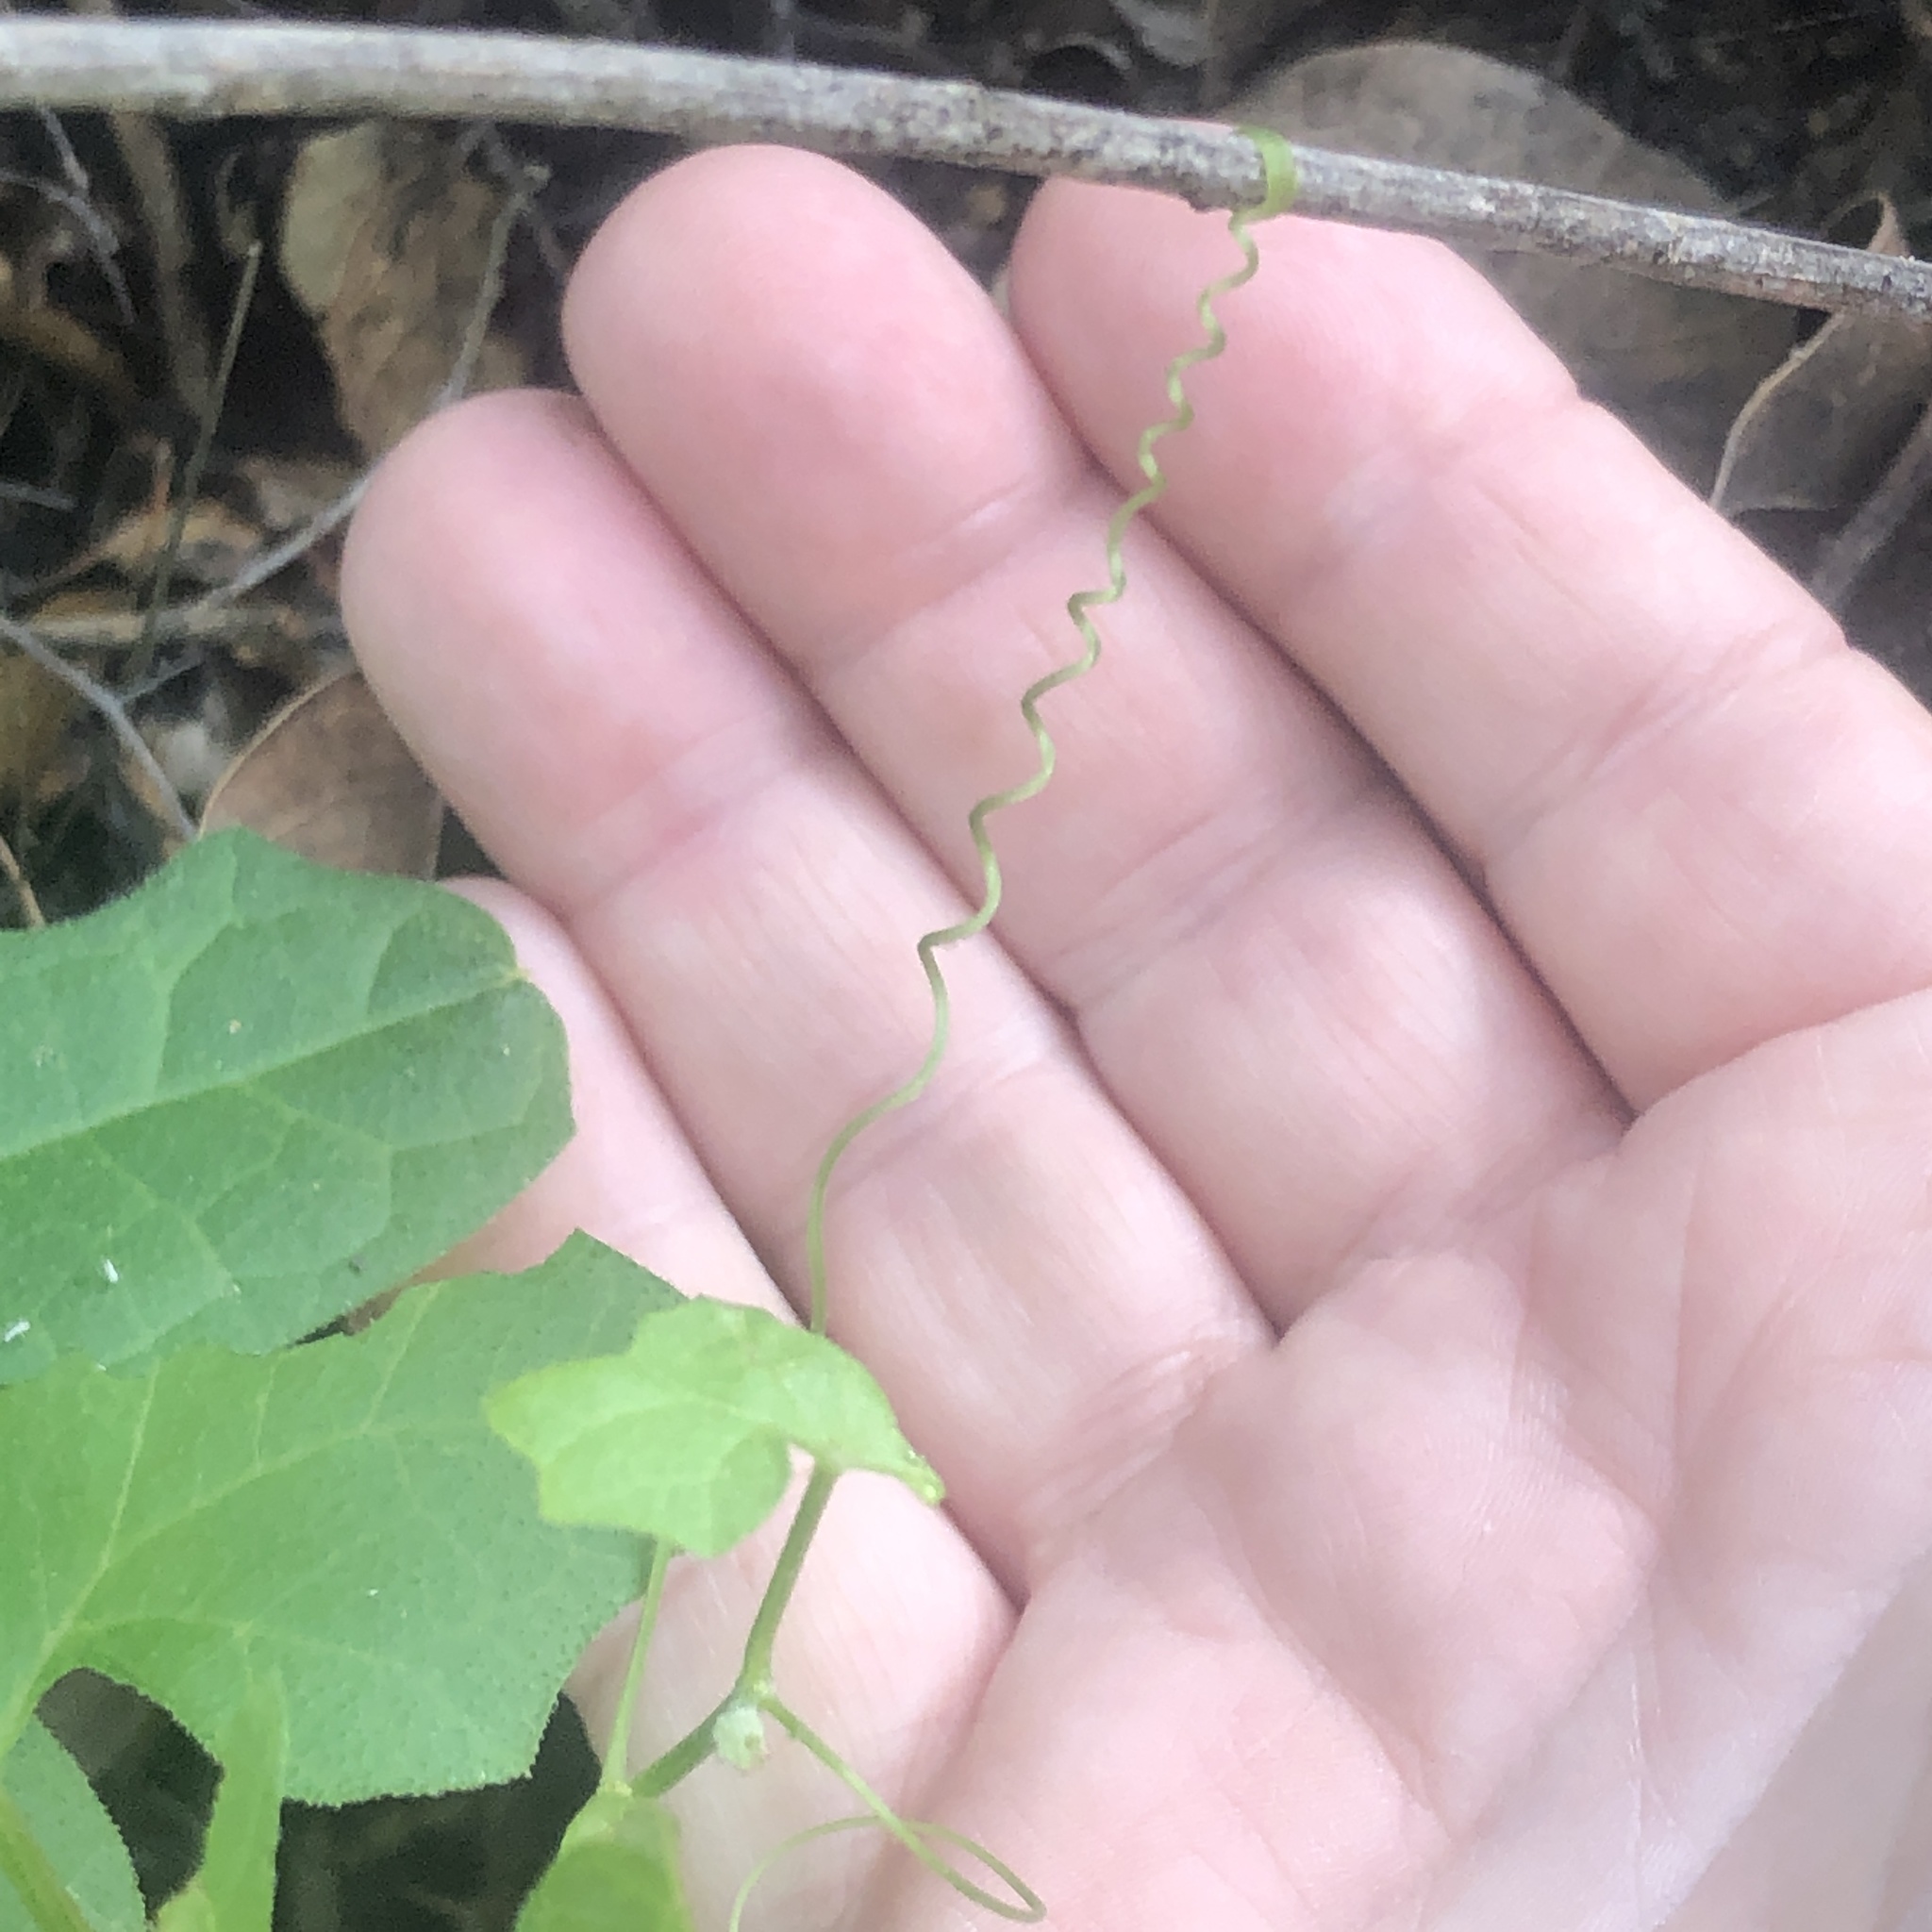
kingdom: Plantae
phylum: Tracheophyta
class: Magnoliopsida
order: Cucurbitales
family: Cucurbitaceae
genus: Marah
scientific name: Marah macrocarpa
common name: Cucamonga manroot
